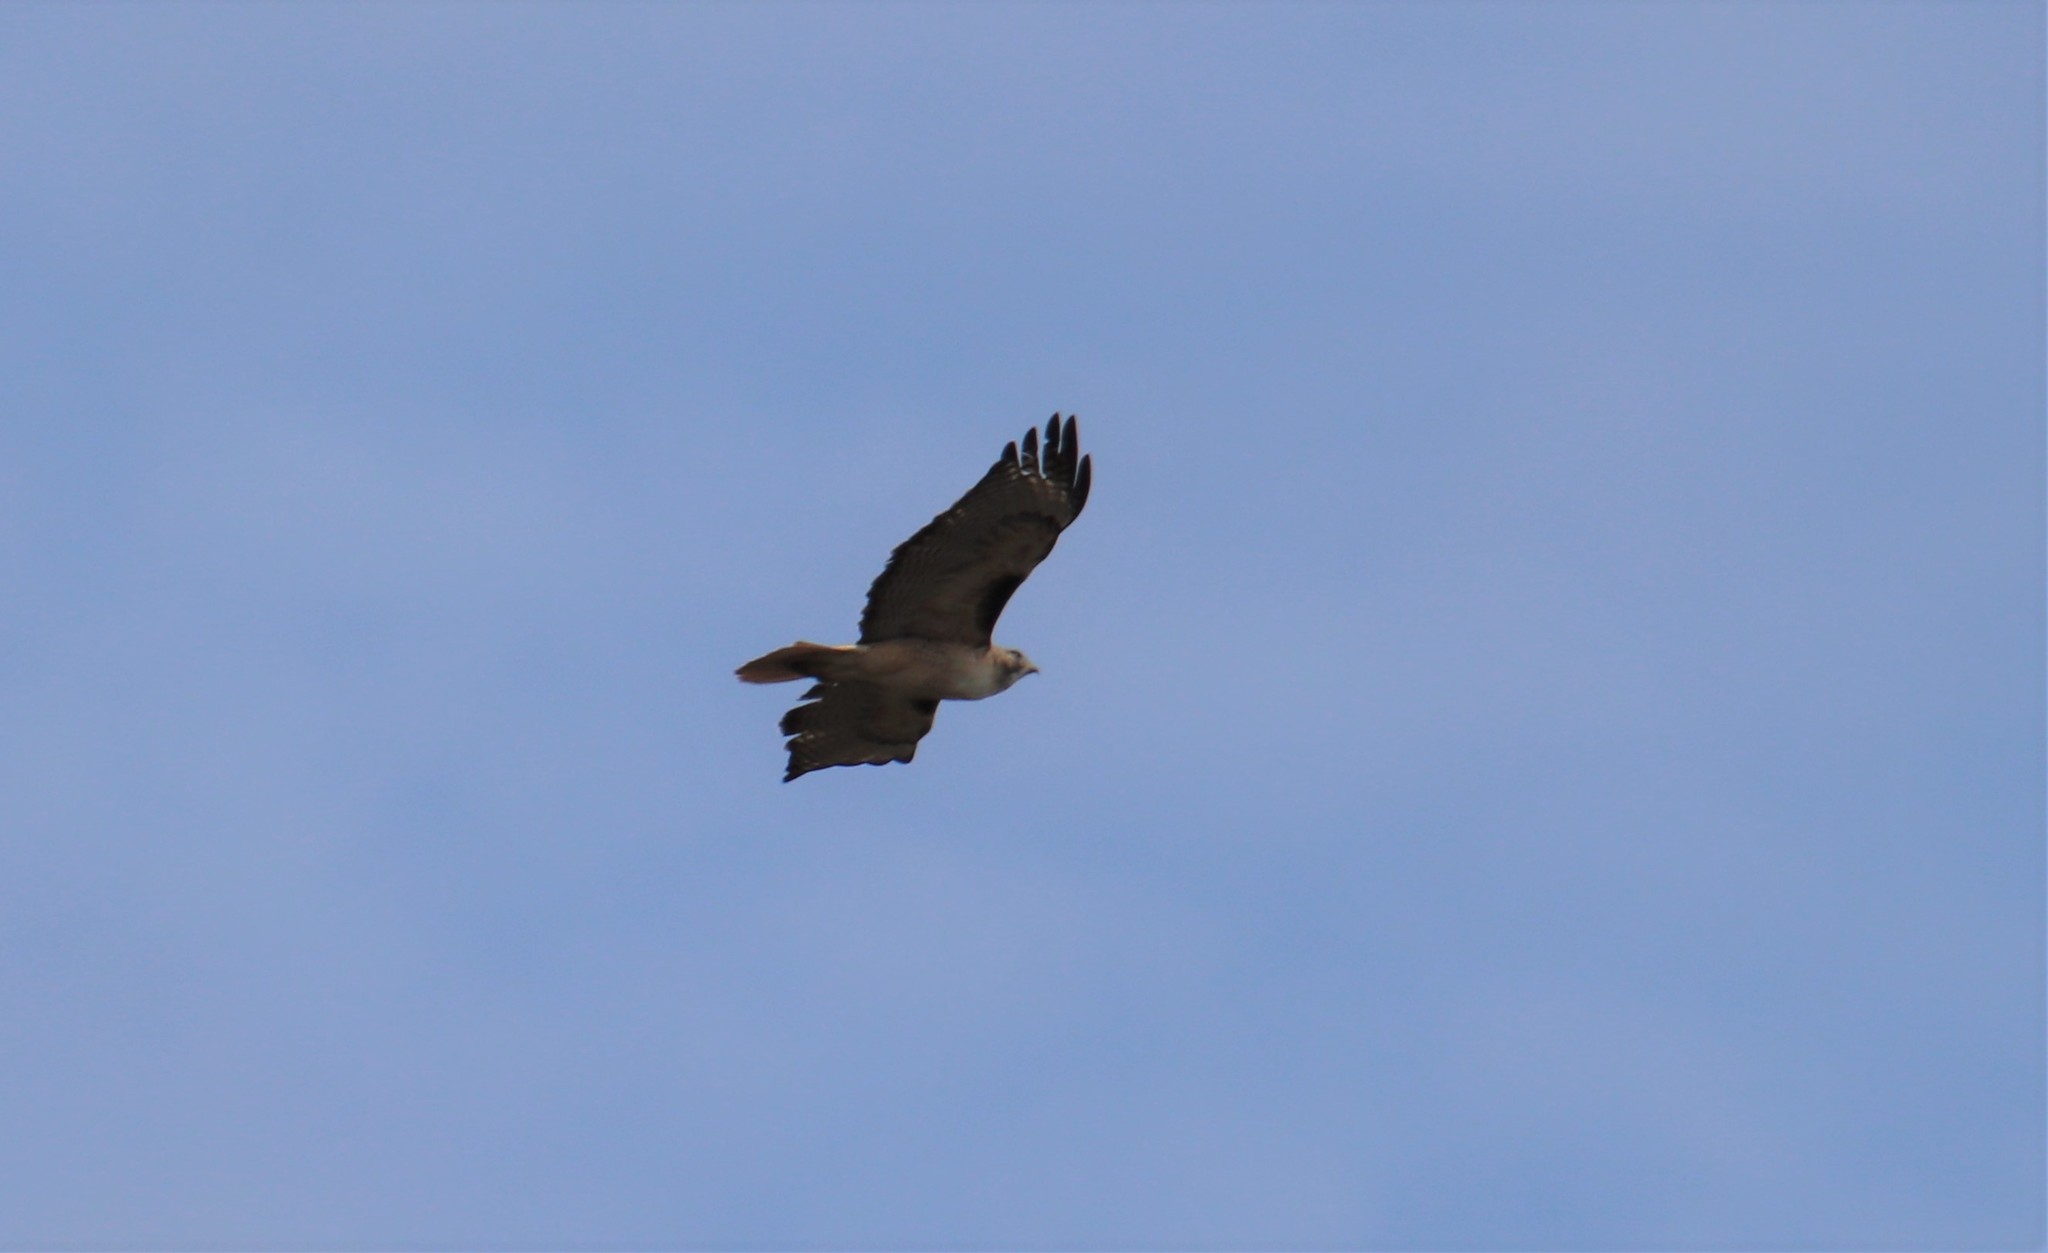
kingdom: Animalia
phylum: Chordata
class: Aves
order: Accipitriformes
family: Accipitridae
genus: Buteo
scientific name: Buteo jamaicensis
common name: Red-tailed hawk
